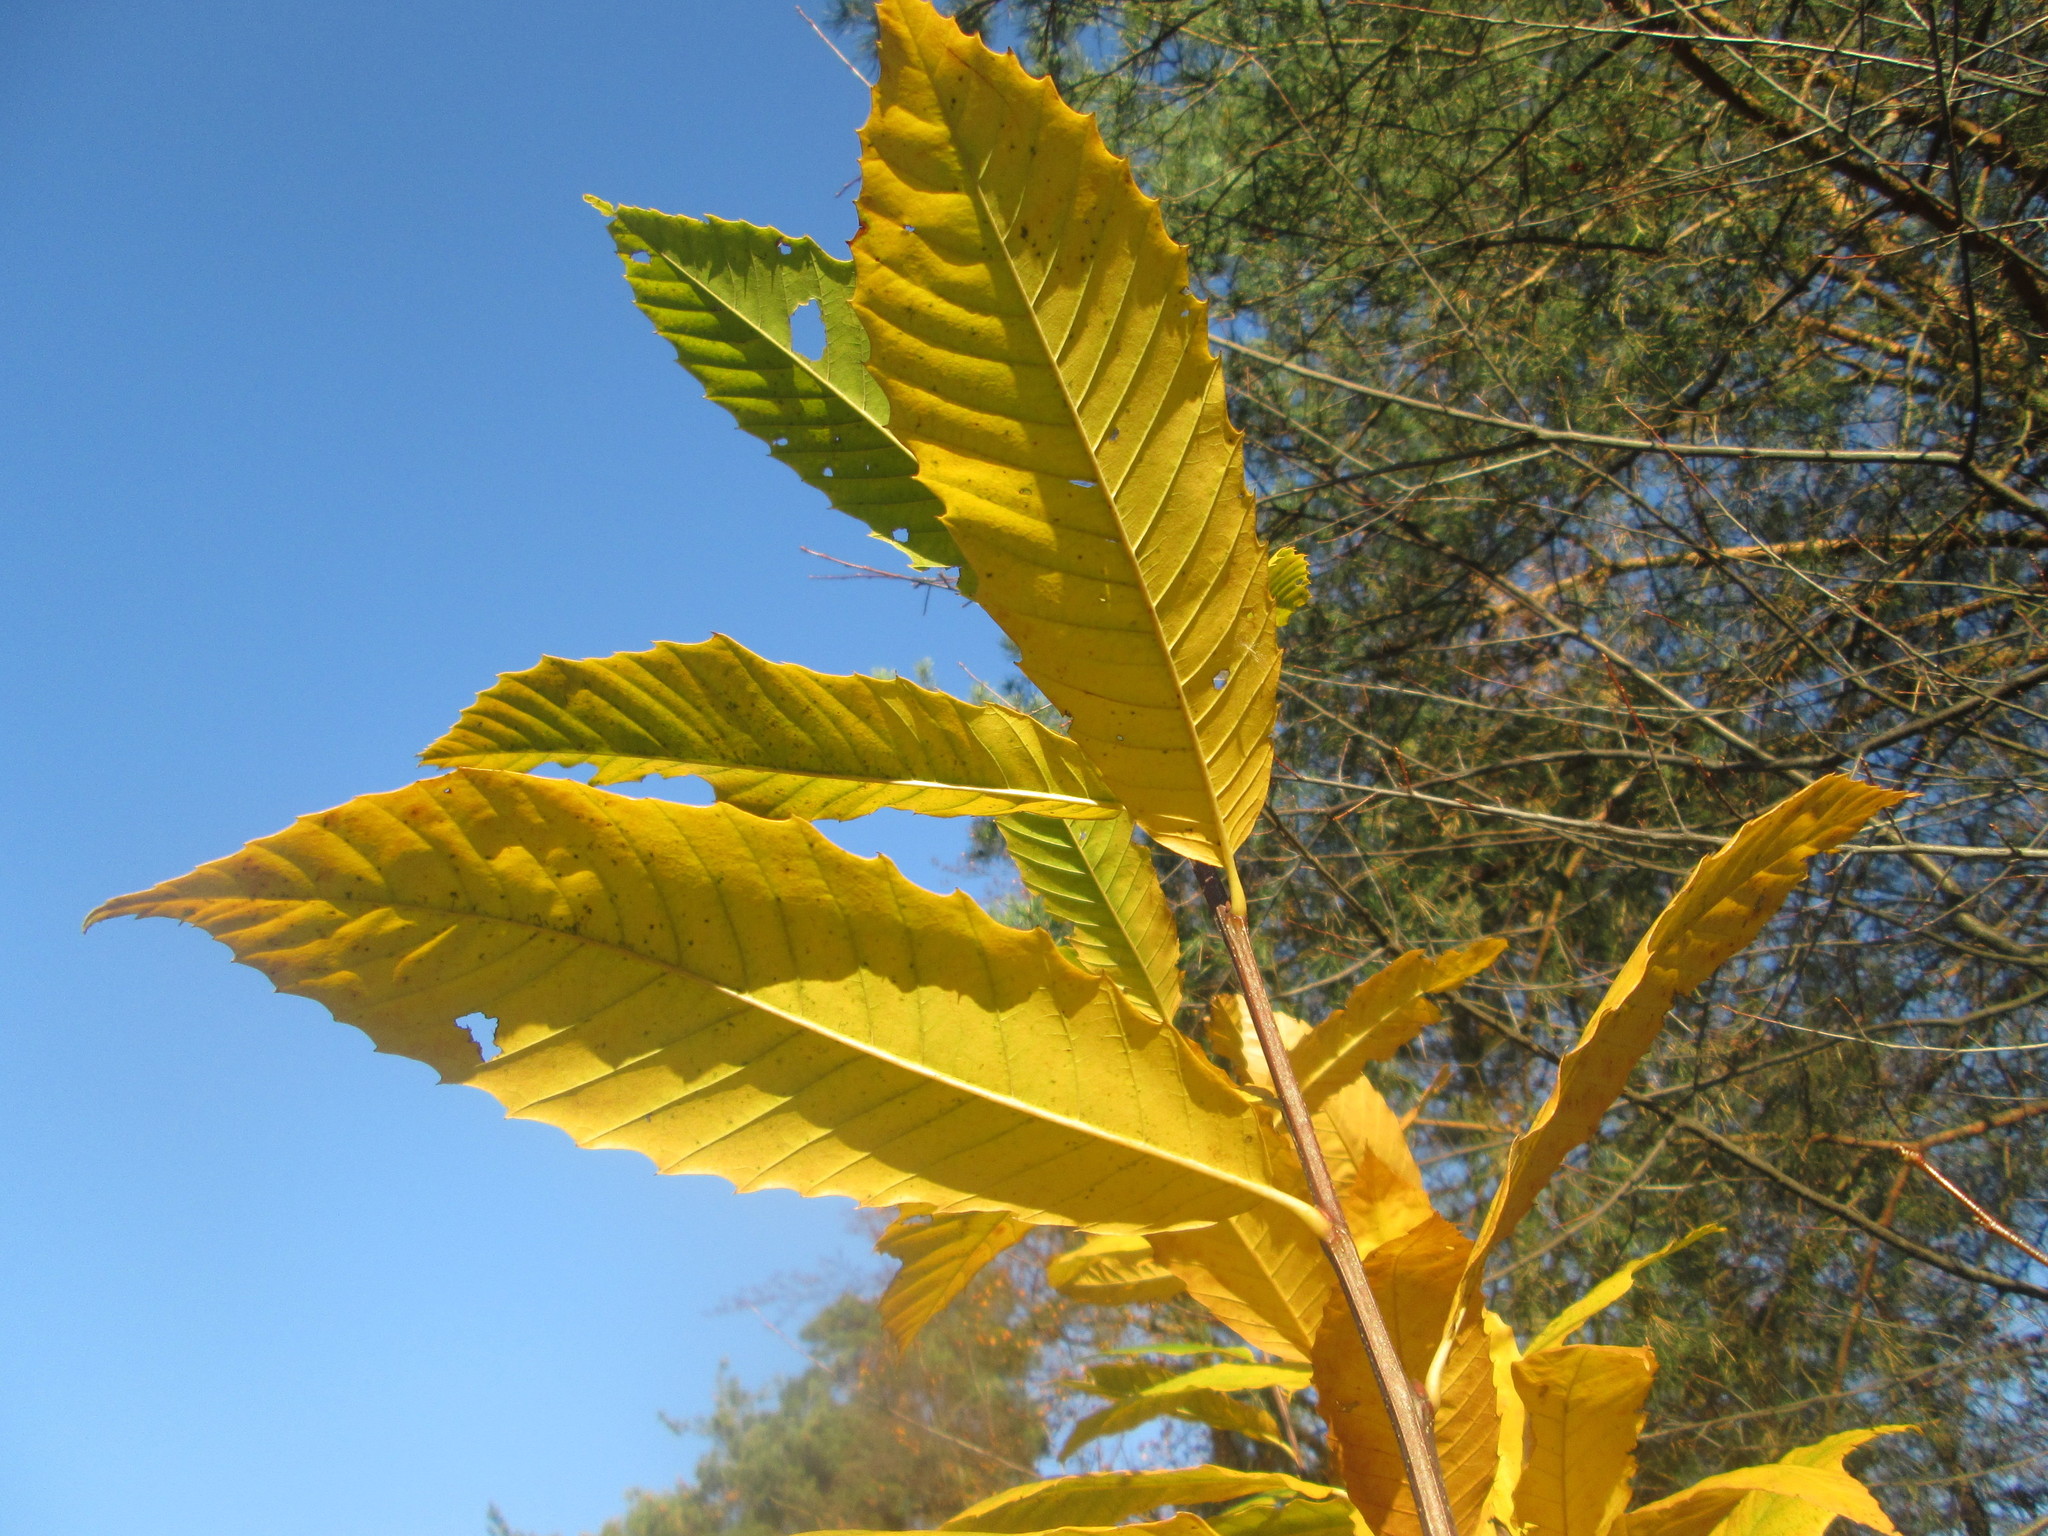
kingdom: Plantae
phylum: Tracheophyta
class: Magnoliopsida
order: Fagales
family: Fagaceae
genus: Castanea
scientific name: Castanea sativa
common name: Sweet chestnut
